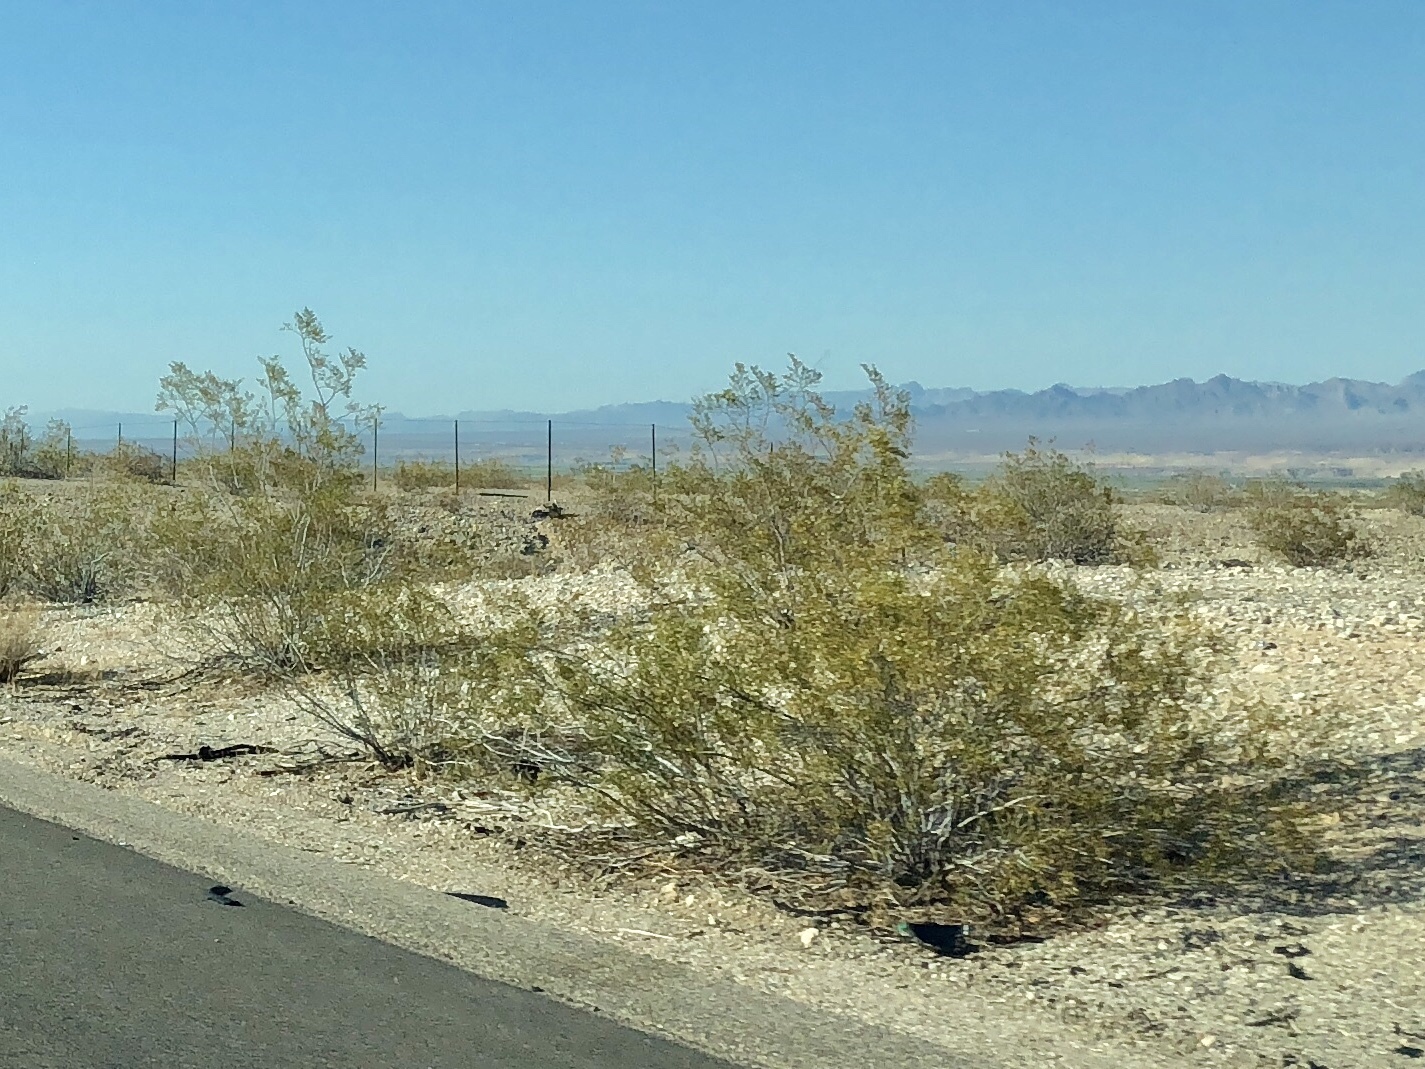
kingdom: Plantae
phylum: Tracheophyta
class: Magnoliopsida
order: Zygophyllales
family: Zygophyllaceae
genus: Larrea
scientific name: Larrea tridentata
